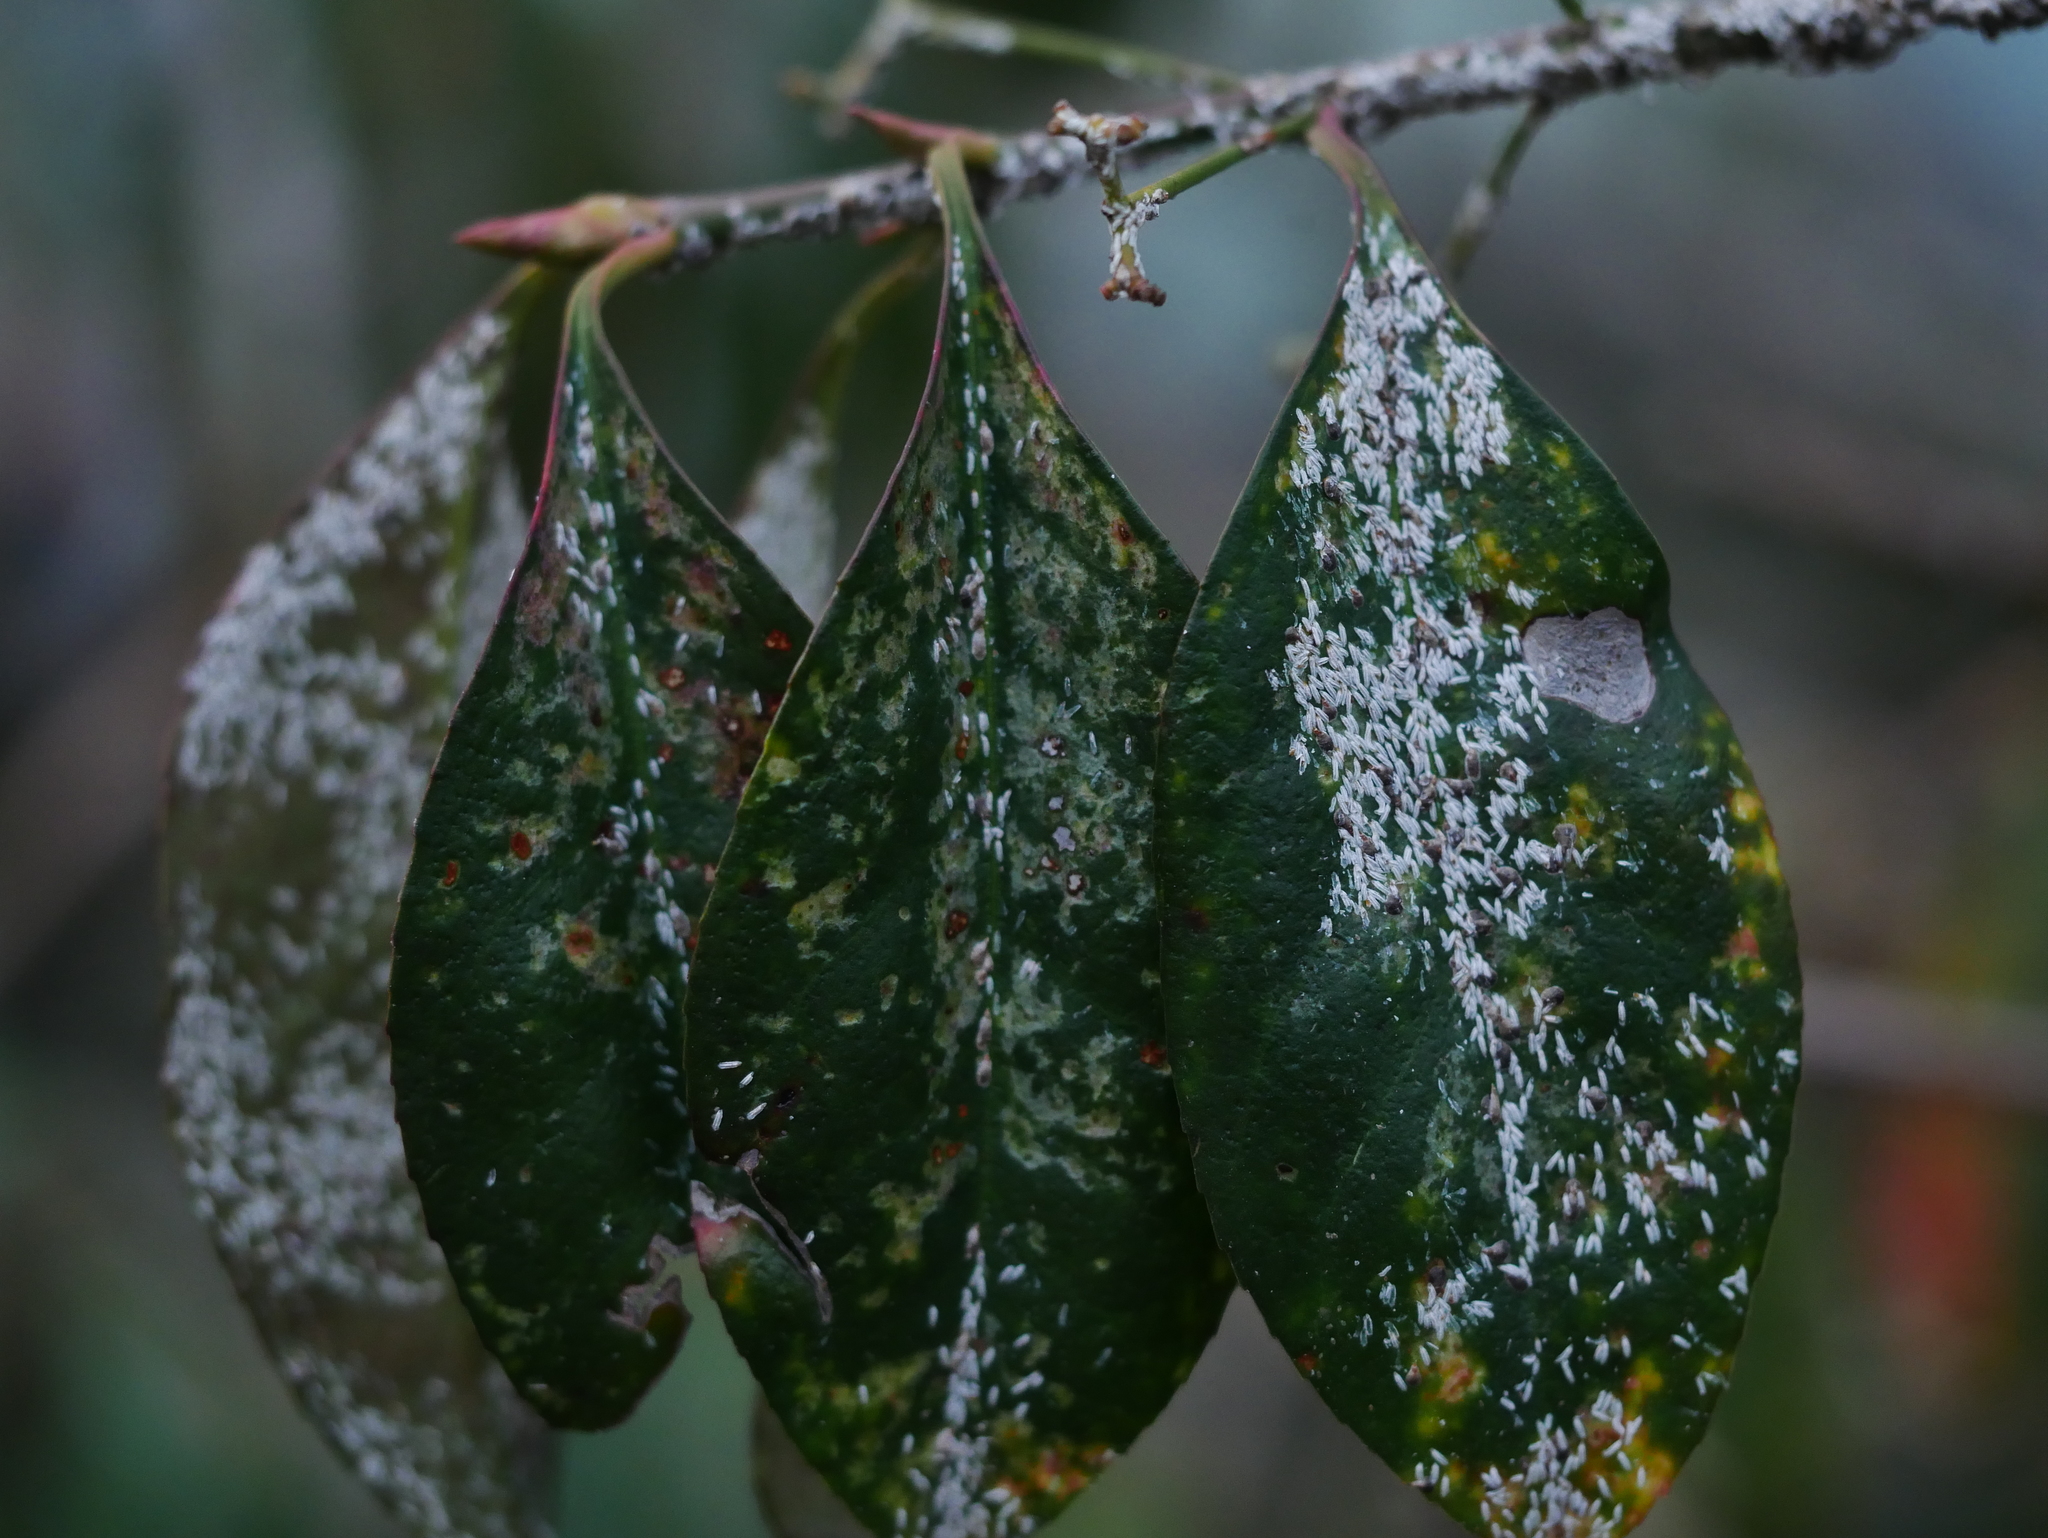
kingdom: Animalia
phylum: Arthropoda
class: Insecta
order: Hemiptera
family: Diaspididae
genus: Unaspis
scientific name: Unaspis euonymi
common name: Euonymus scale
